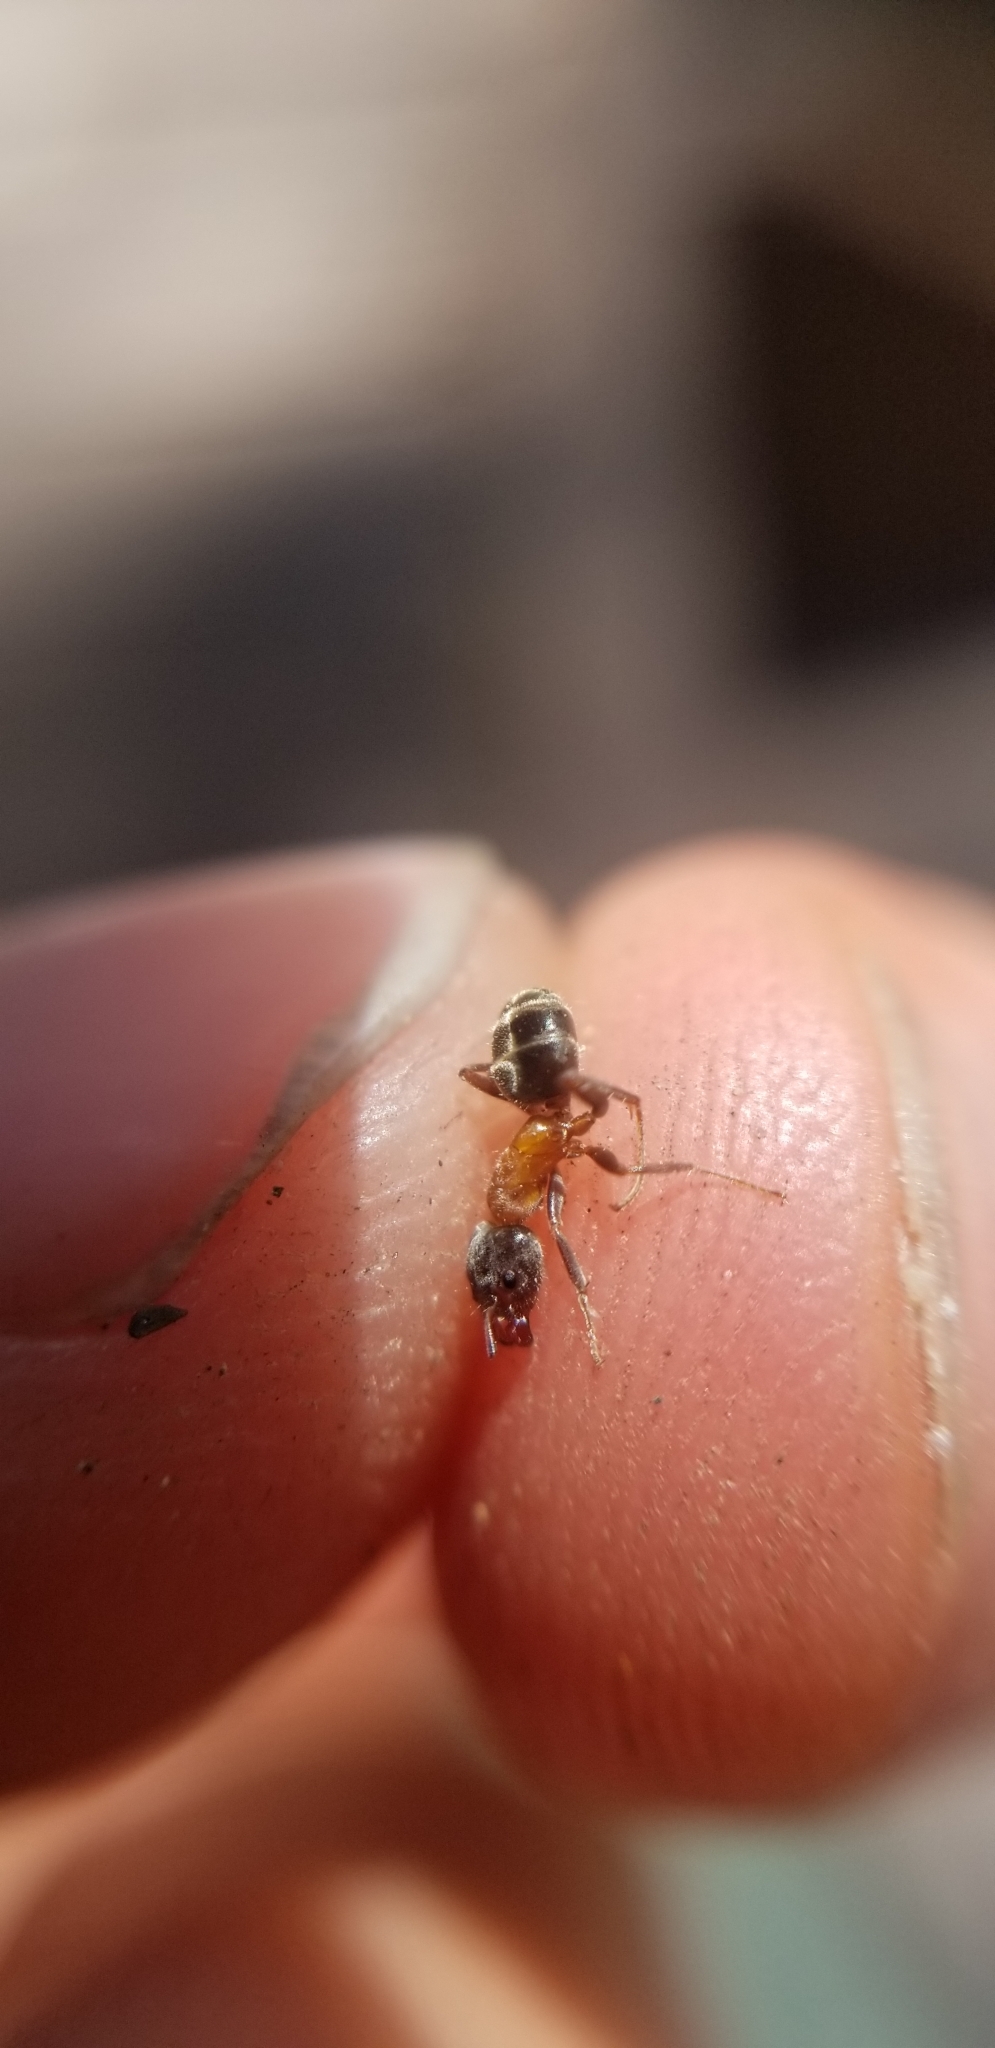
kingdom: Animalia
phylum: Arthropoda
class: Insecta
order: Hymenoptera
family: Formicidae
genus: Liometopum
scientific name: Liometopum occidentale
